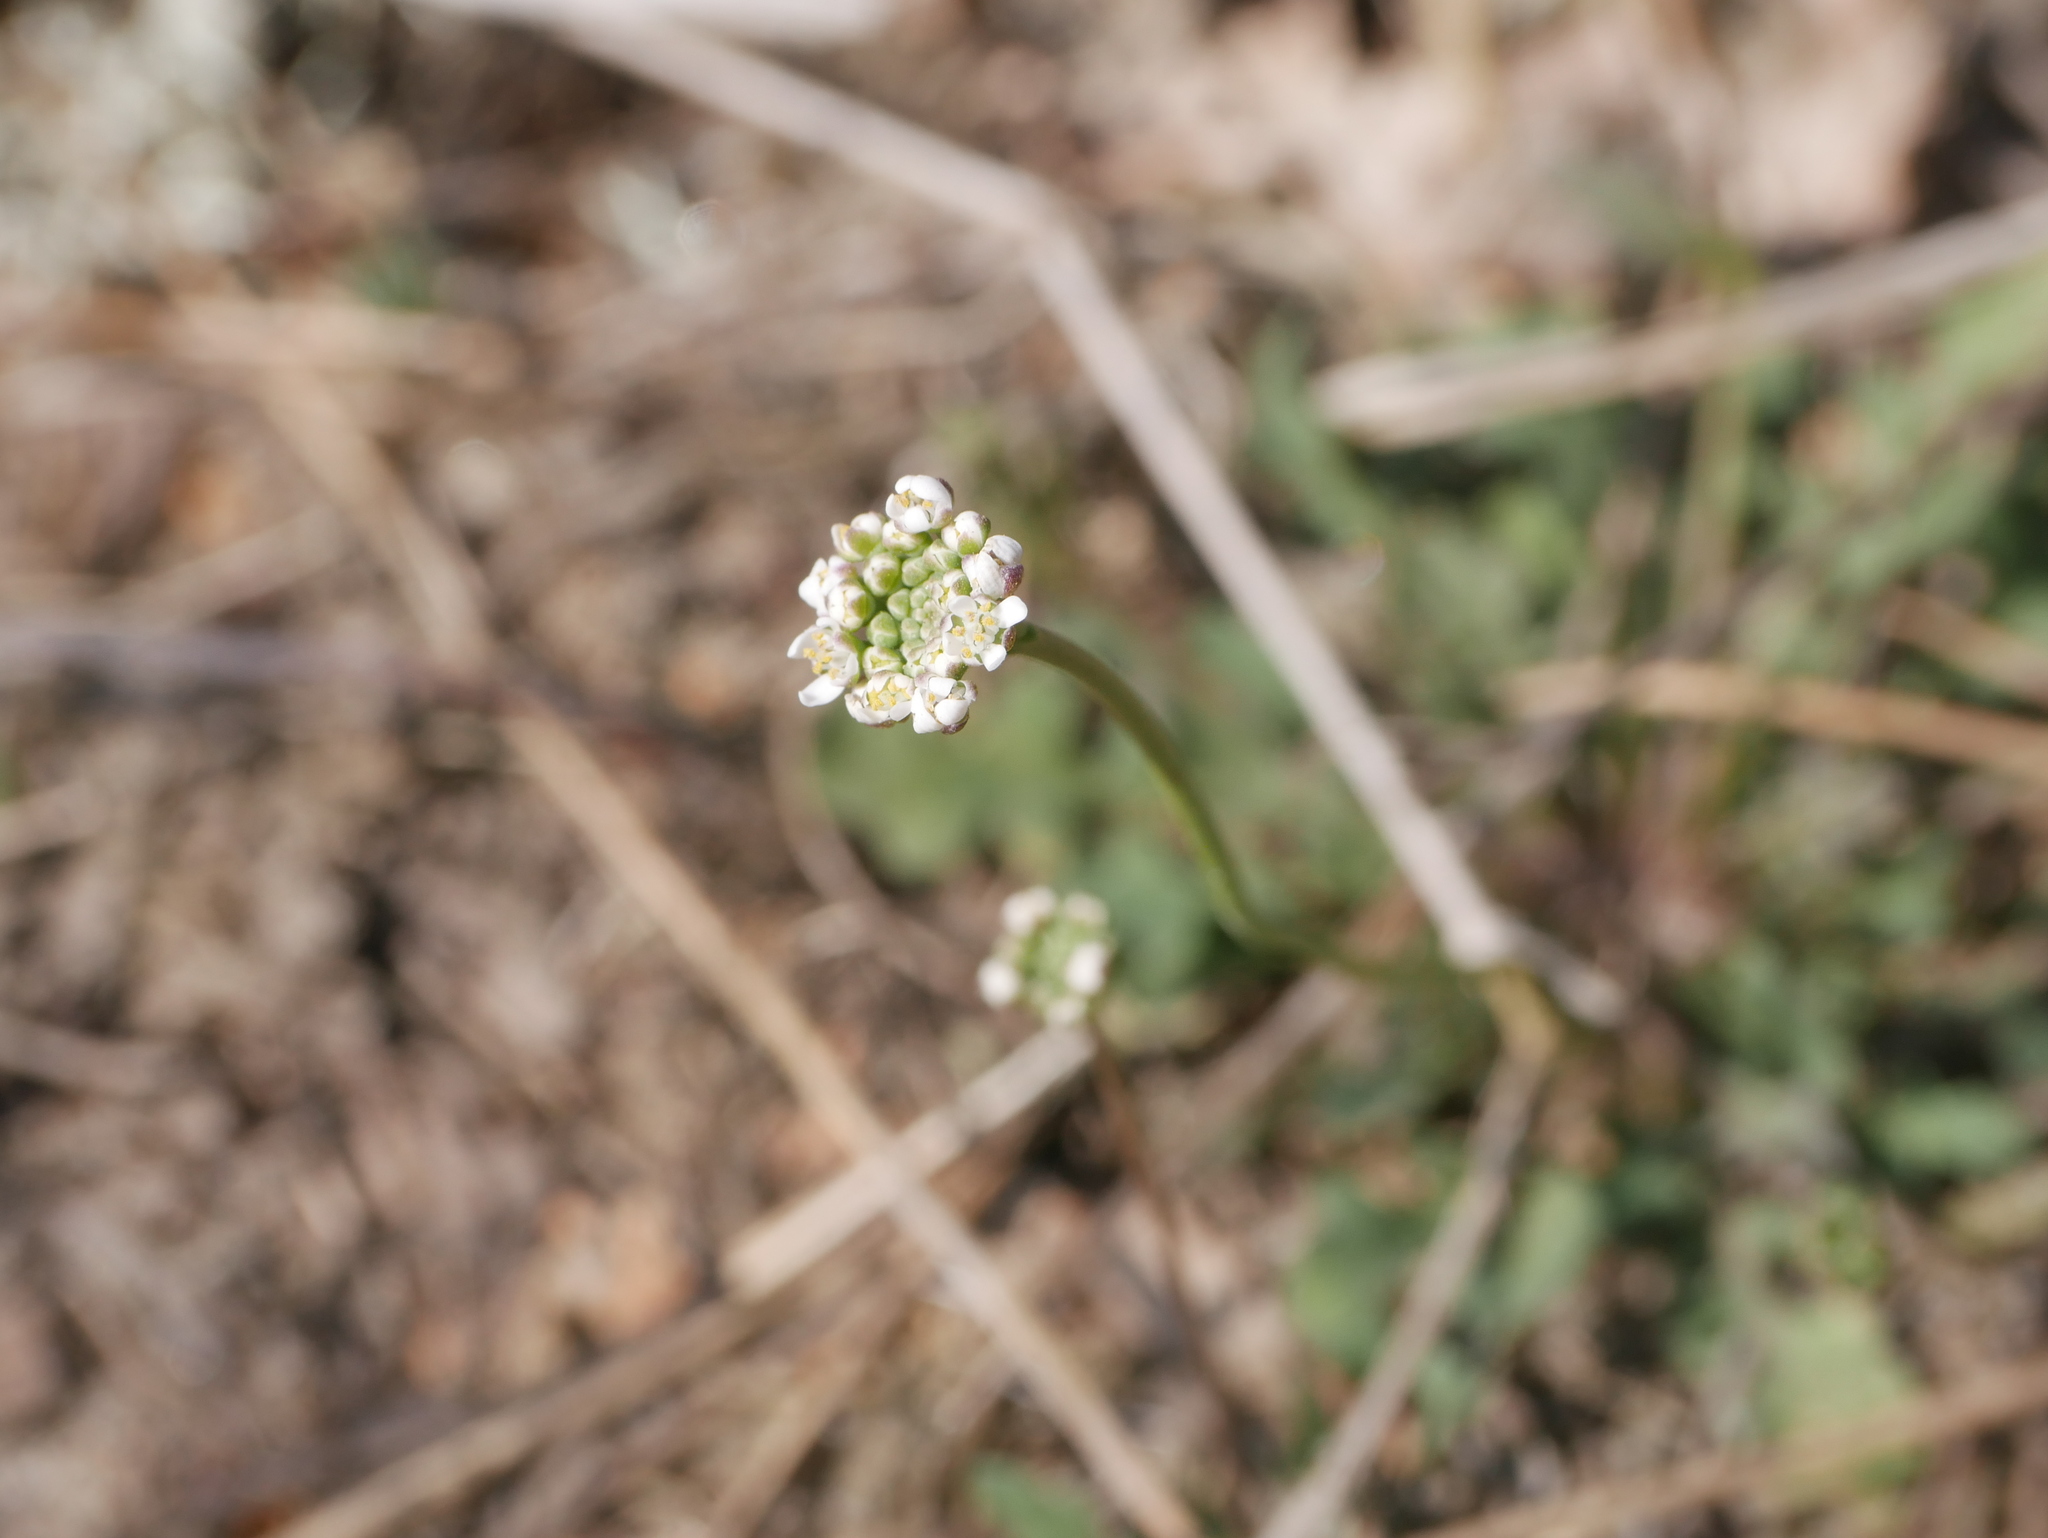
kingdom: Plantae
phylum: Tracheophyta
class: Magnoliopsida
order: Brassicales
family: Brassicaceae
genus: Teesdalia
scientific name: Teesdalia nudicaulis
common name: Shepherd's cress
